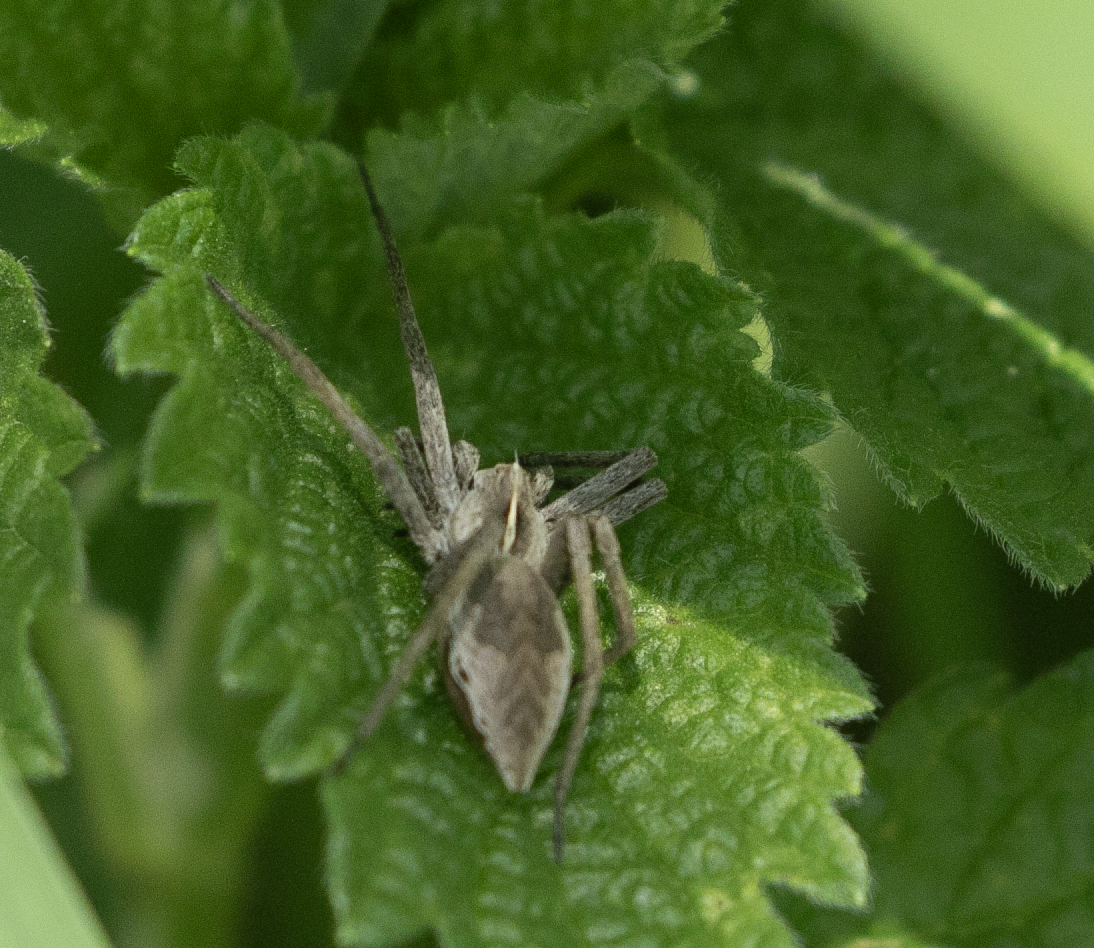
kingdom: Animalia
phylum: Arthropoda
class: Arachnida
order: Araneae
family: Pisauridae
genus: Pisaura
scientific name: Pisaura mirabilis
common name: Tent spider
